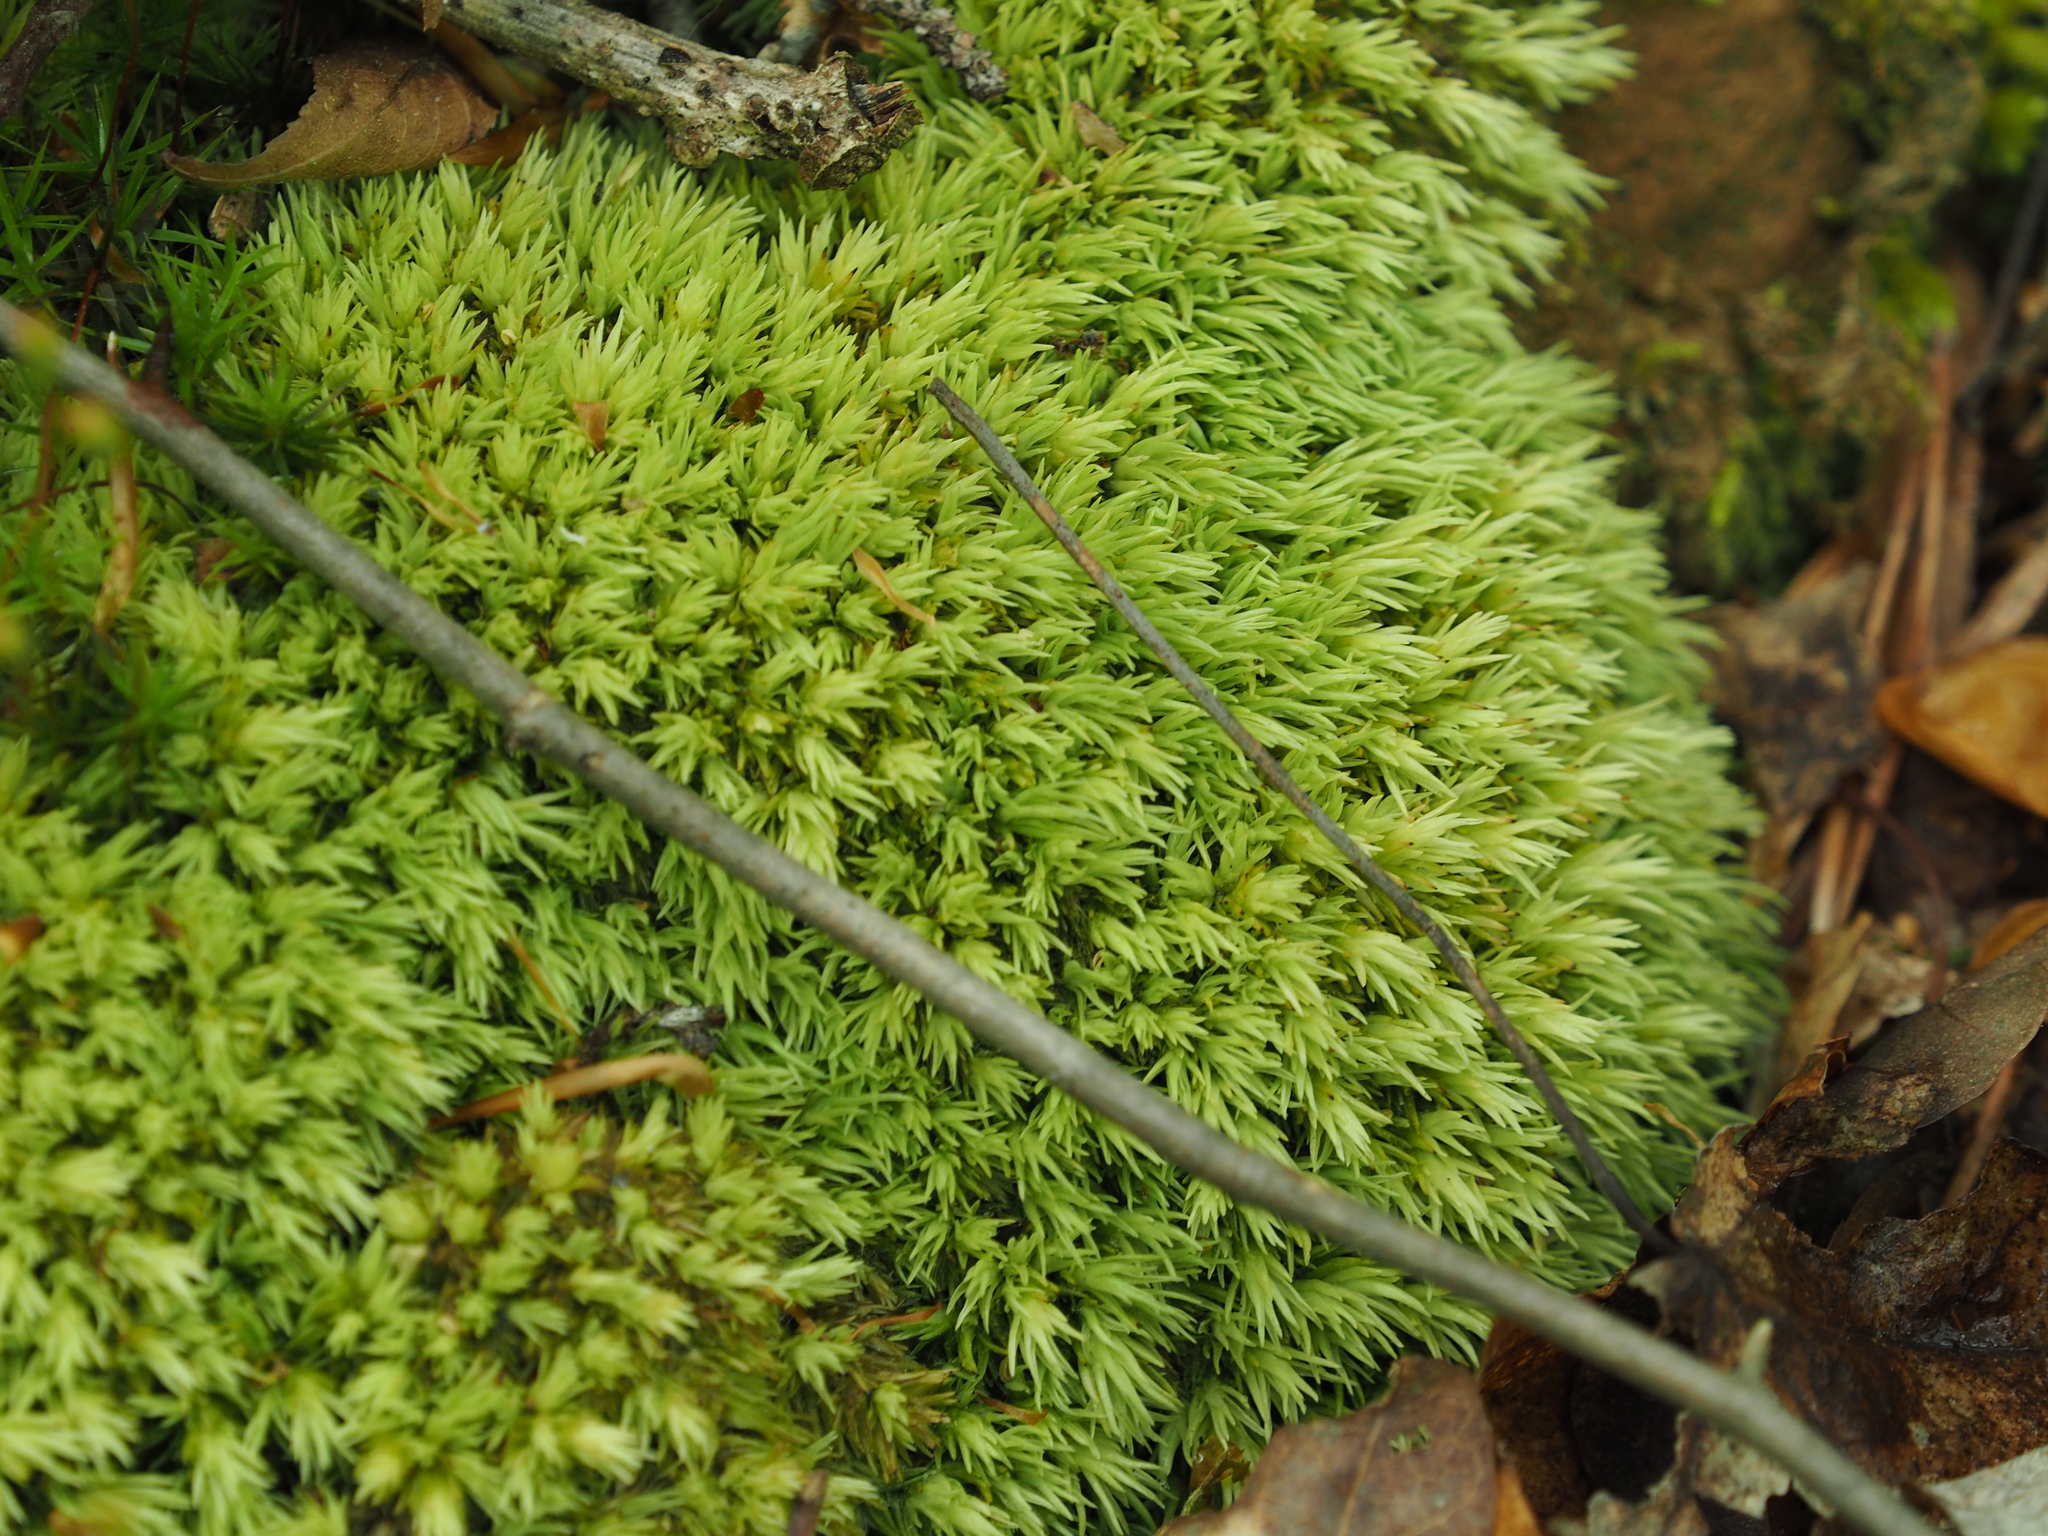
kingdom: Plantae
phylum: Bryophyta
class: Bryopsida
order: Dicranales
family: Leucobryaceae
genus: Leucobryum
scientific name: Leucobryum glaucum
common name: Large white-moss
